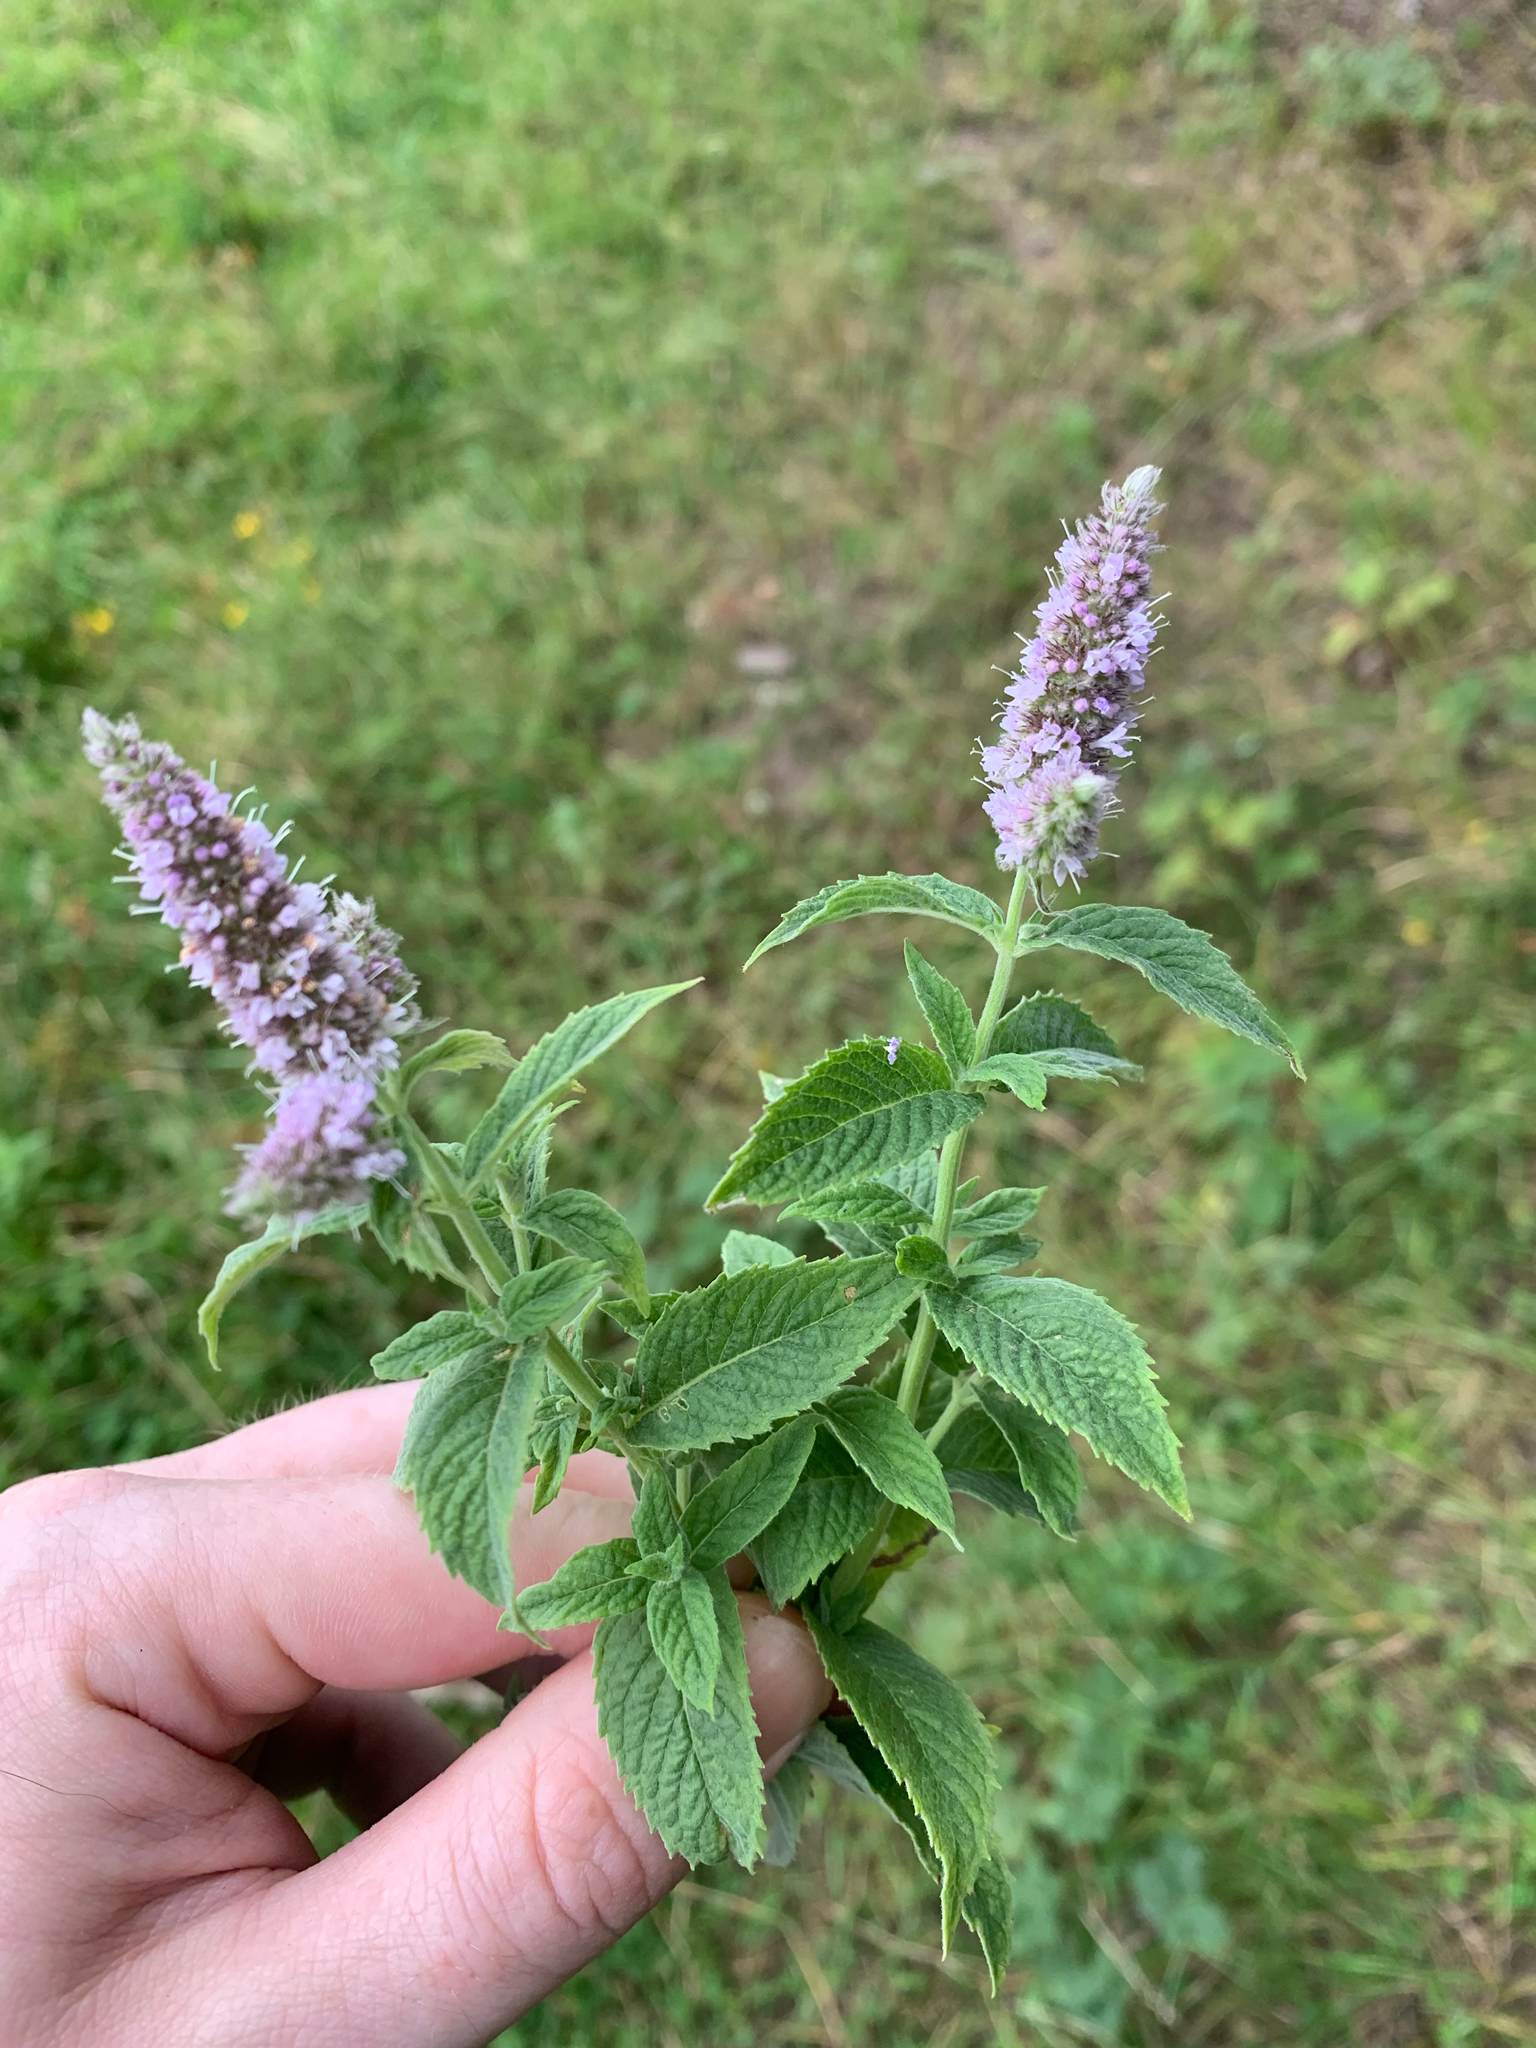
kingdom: Plantae
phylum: Tracheophyta
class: Magnoliopsida
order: Lamiales
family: Lamiaceae
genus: Mentha
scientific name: Mentha longifolia
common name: Horse mint
